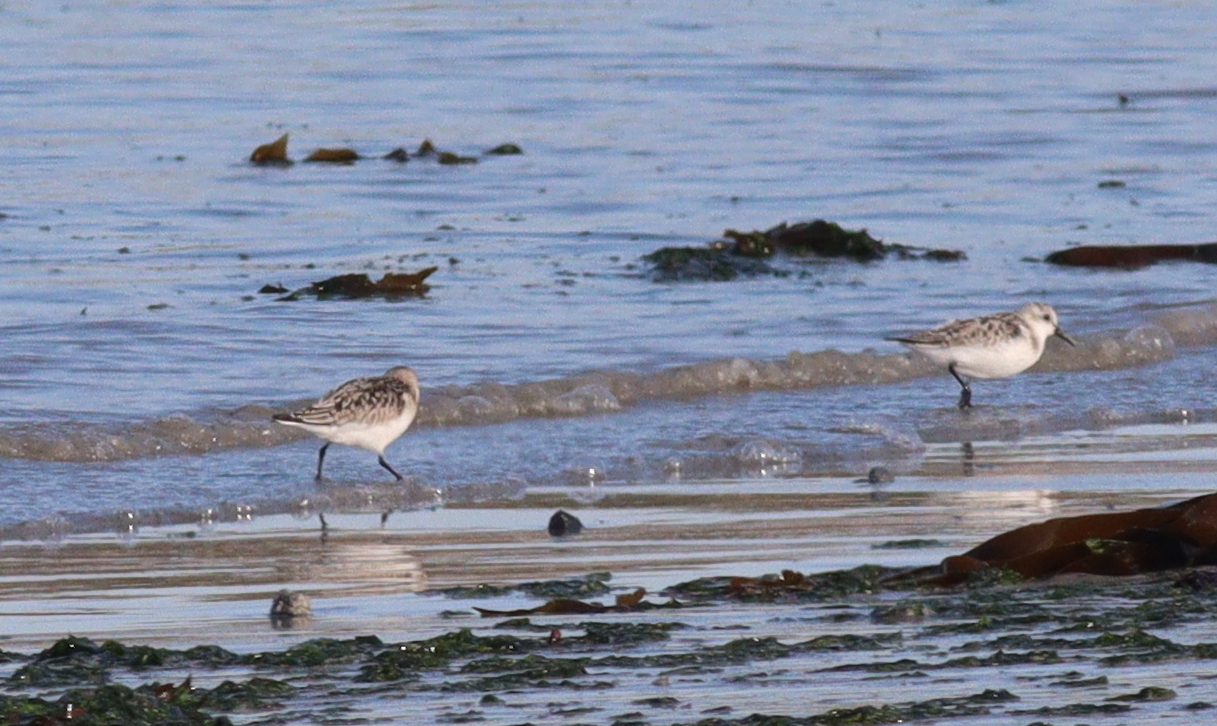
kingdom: Animalia
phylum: Chordata
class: Aves
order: Charadriiformes
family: Scolopacidae
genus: Calidris
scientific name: Calidris alba
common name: Sanderling
